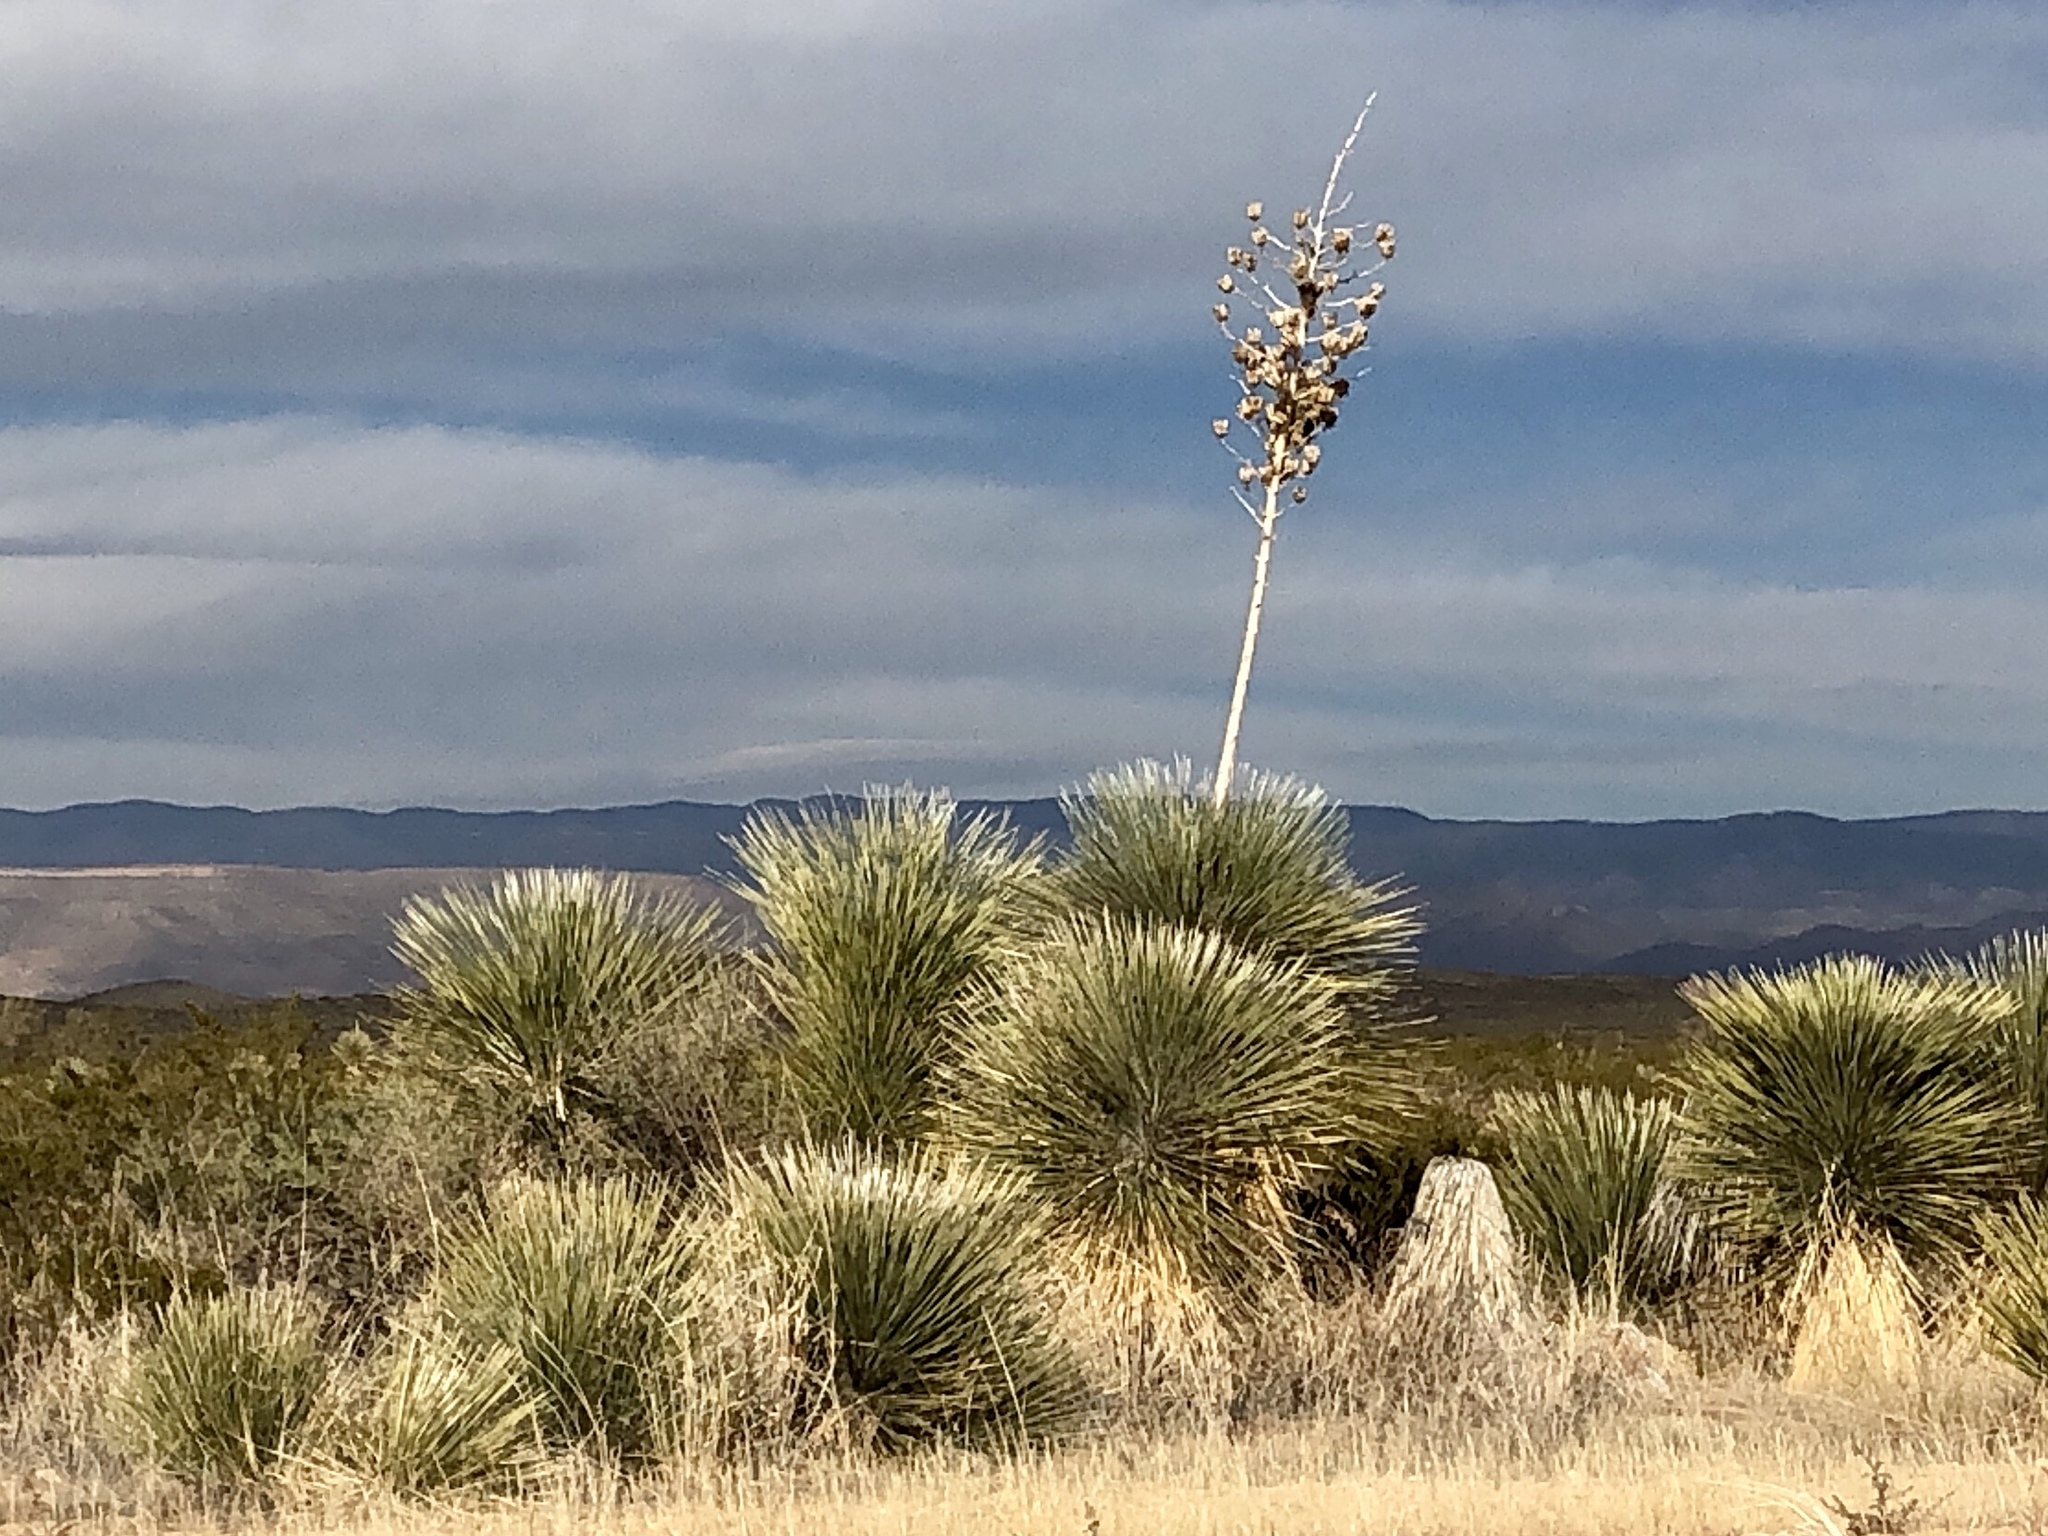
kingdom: Plantae
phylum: Tracheophyta
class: Liliopsida
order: Asparagales
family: Asparagaceae
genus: Yucca
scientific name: Yucca elata
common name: Palmella
